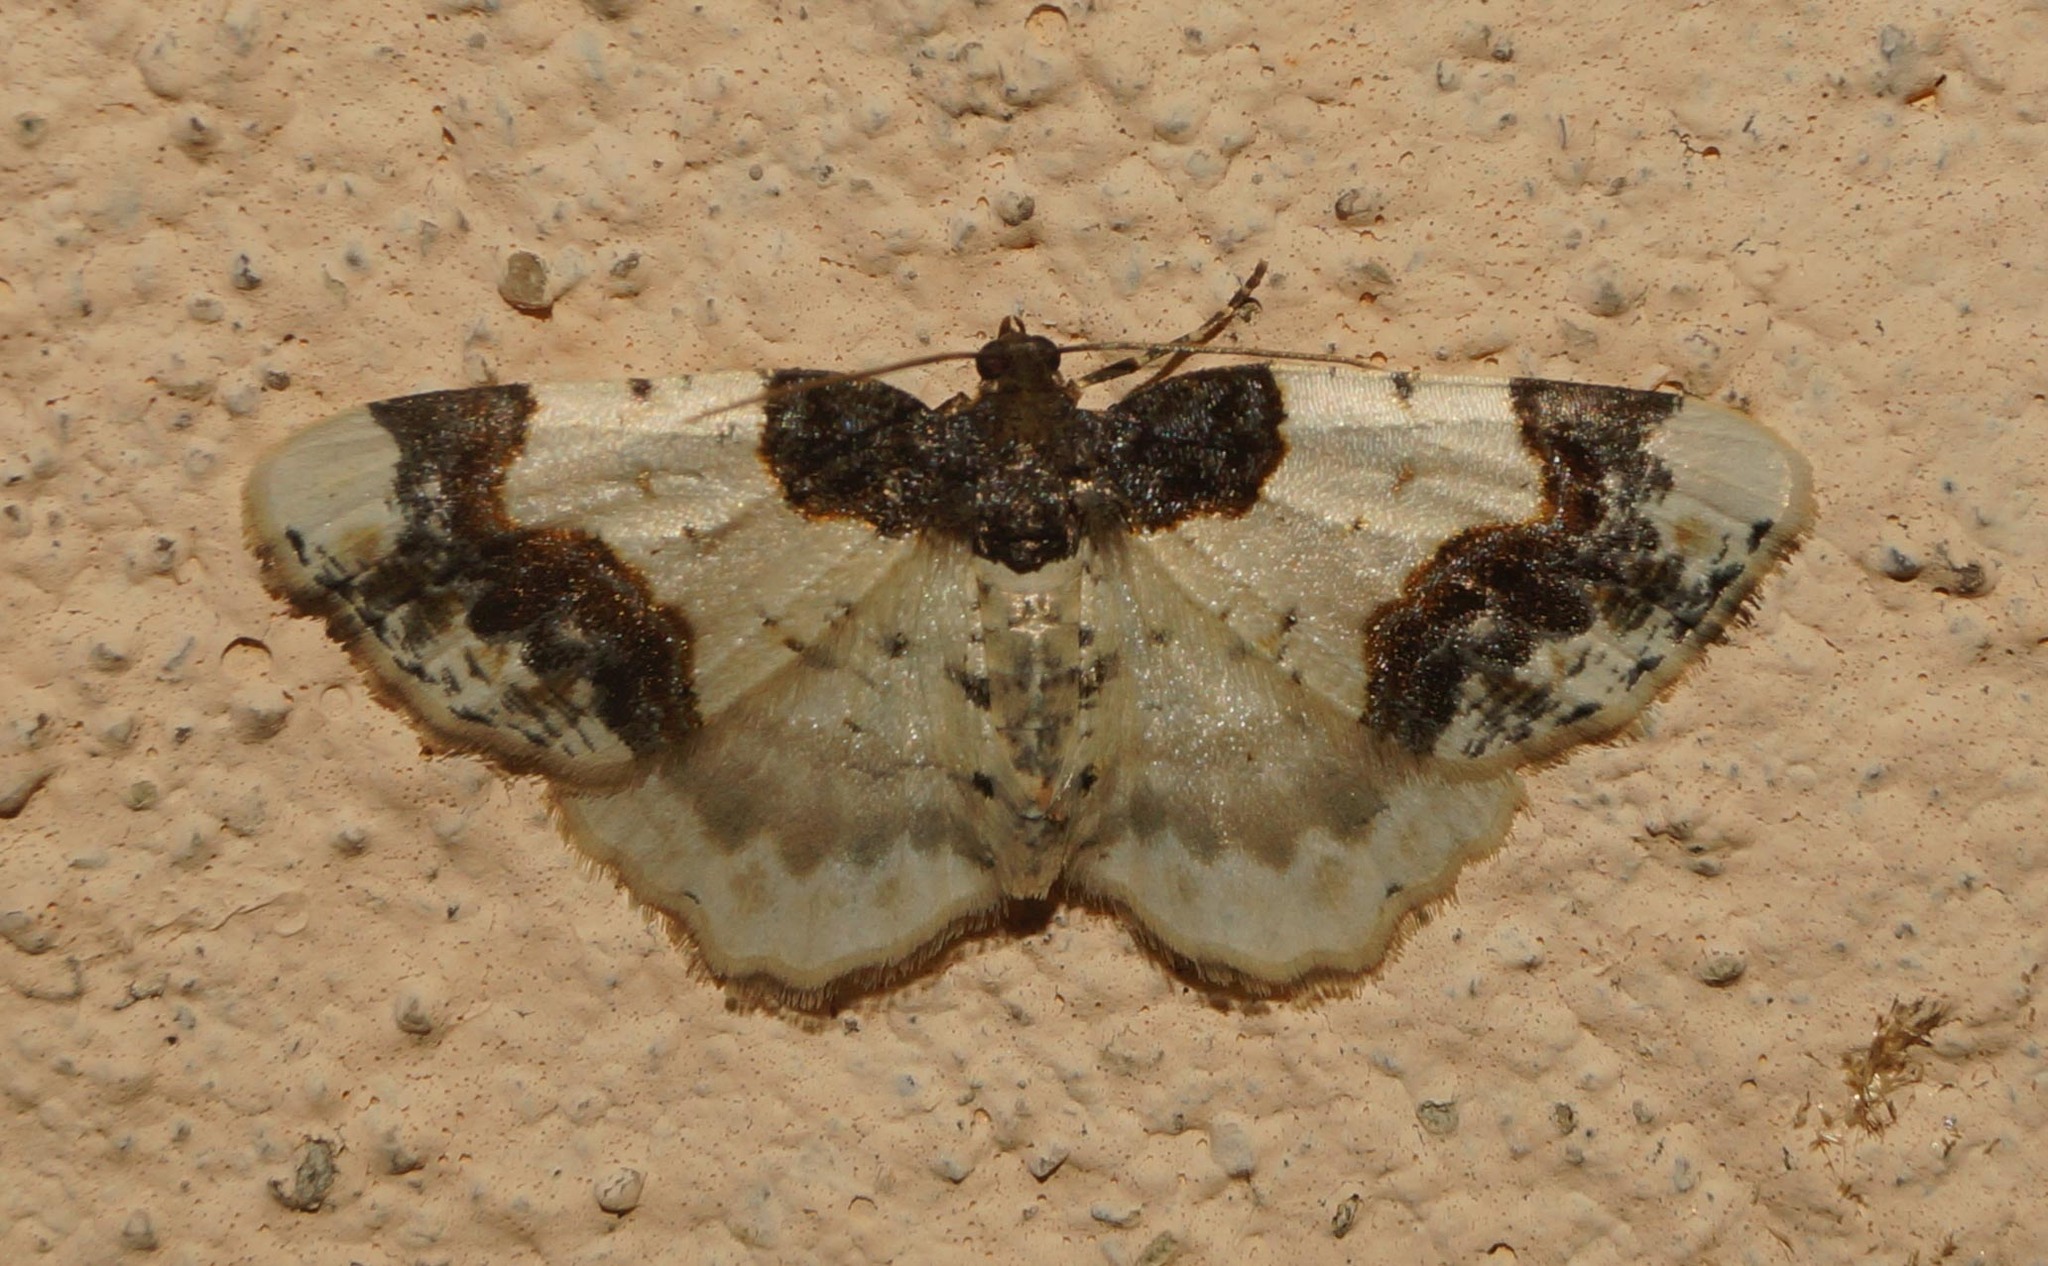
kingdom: Animalia
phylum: Arthropoda
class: Insecta
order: Lepidoptera
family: Geometridae
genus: Ligdia
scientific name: Ligdia adustata
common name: Scorched carpet
